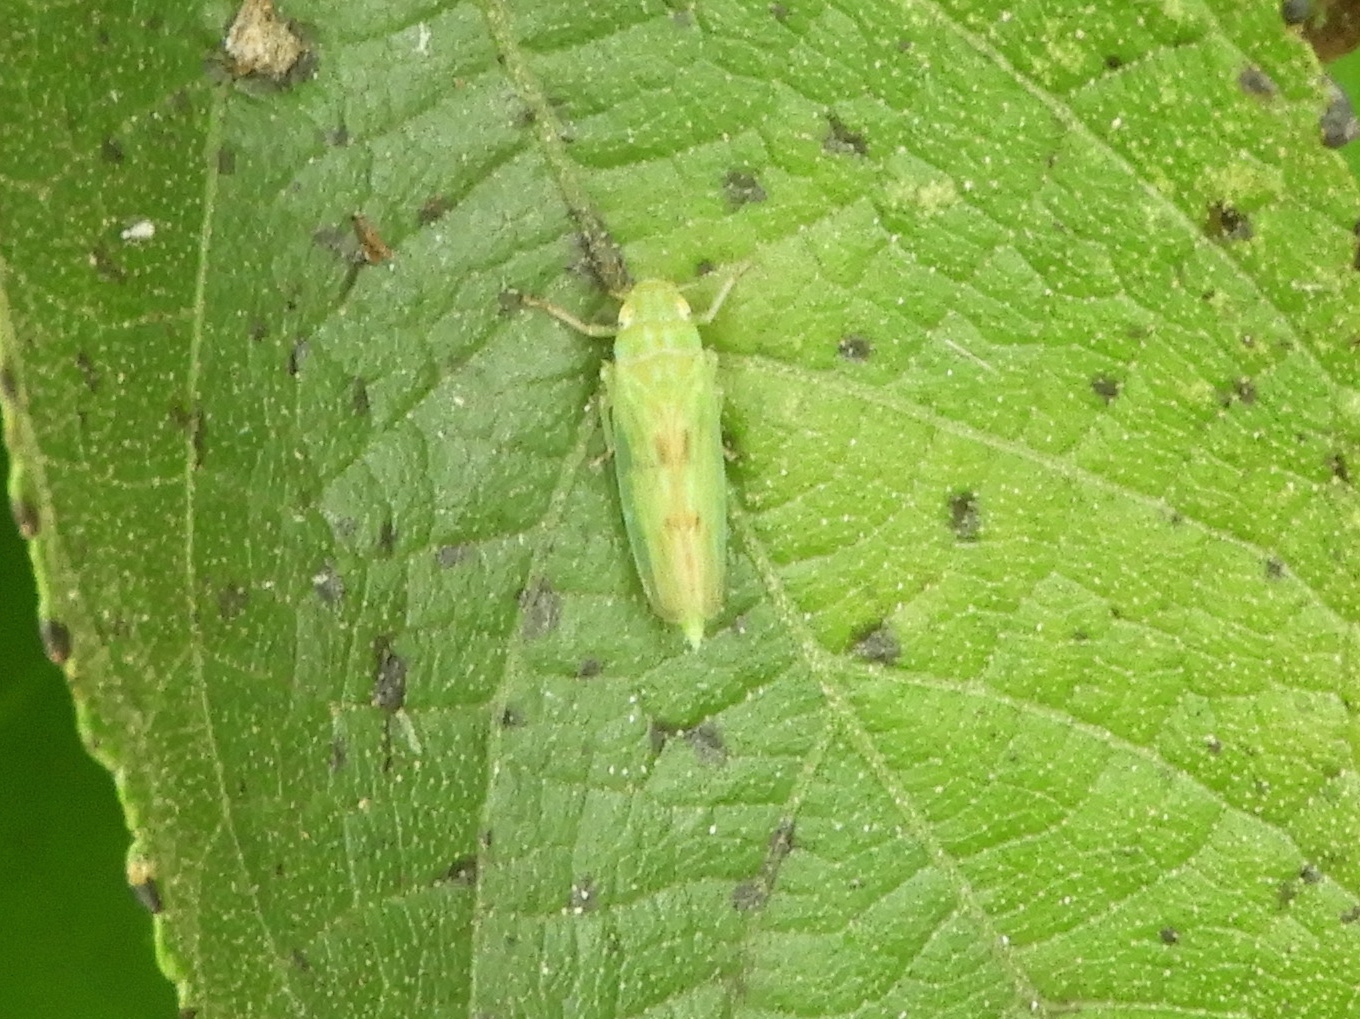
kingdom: Animalia
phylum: Arthropoda
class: Insecta
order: Hemiptera
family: Cicadellidae
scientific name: Cicadellidae
